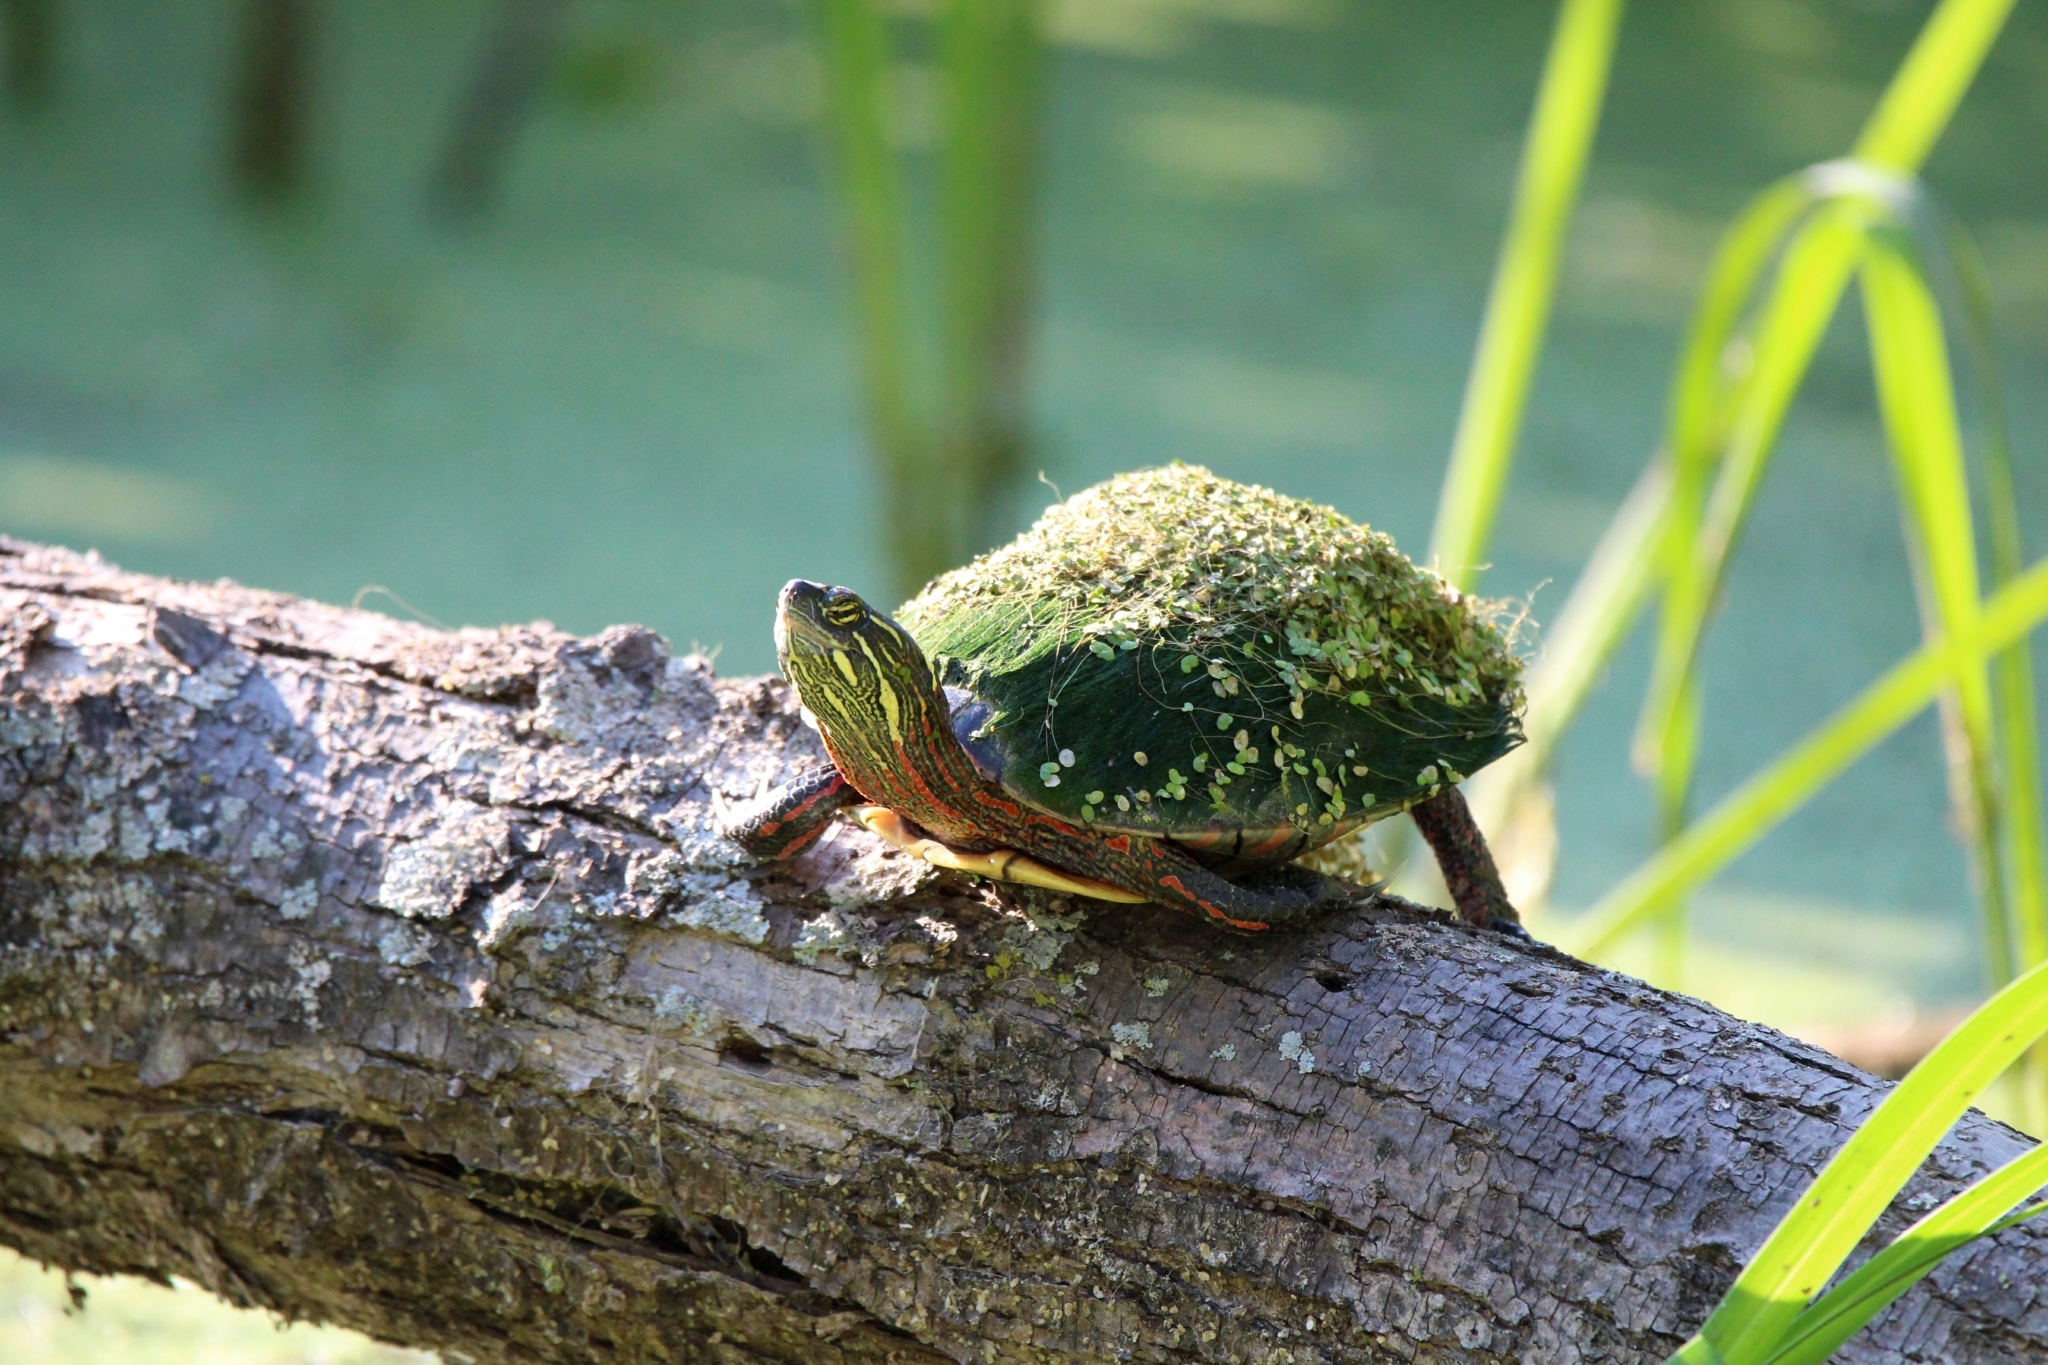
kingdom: Animalia
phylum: Chordata
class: Testudines
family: Emydidae
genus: Chrysemys
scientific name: Chrysemys picta
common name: Painted turtle
